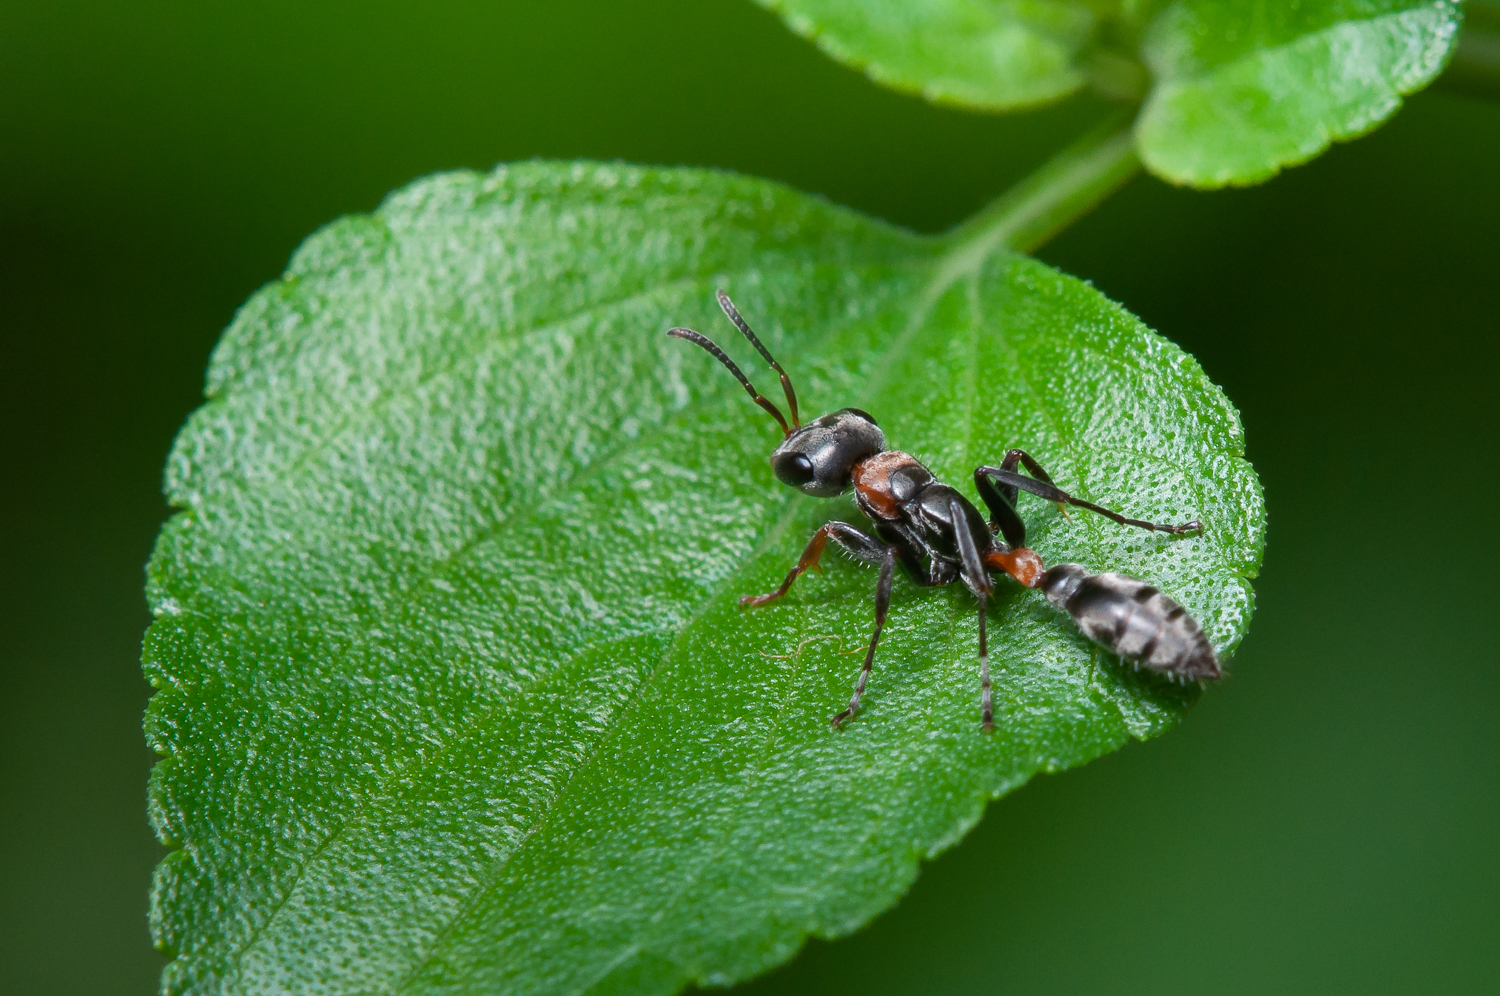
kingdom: Animalia
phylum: Arthropoda
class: Insecta
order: Hymenoptera
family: Formicidae
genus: Pseudomyrmex
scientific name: Pseudomyrmex gracilis
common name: Graceful twig ant
